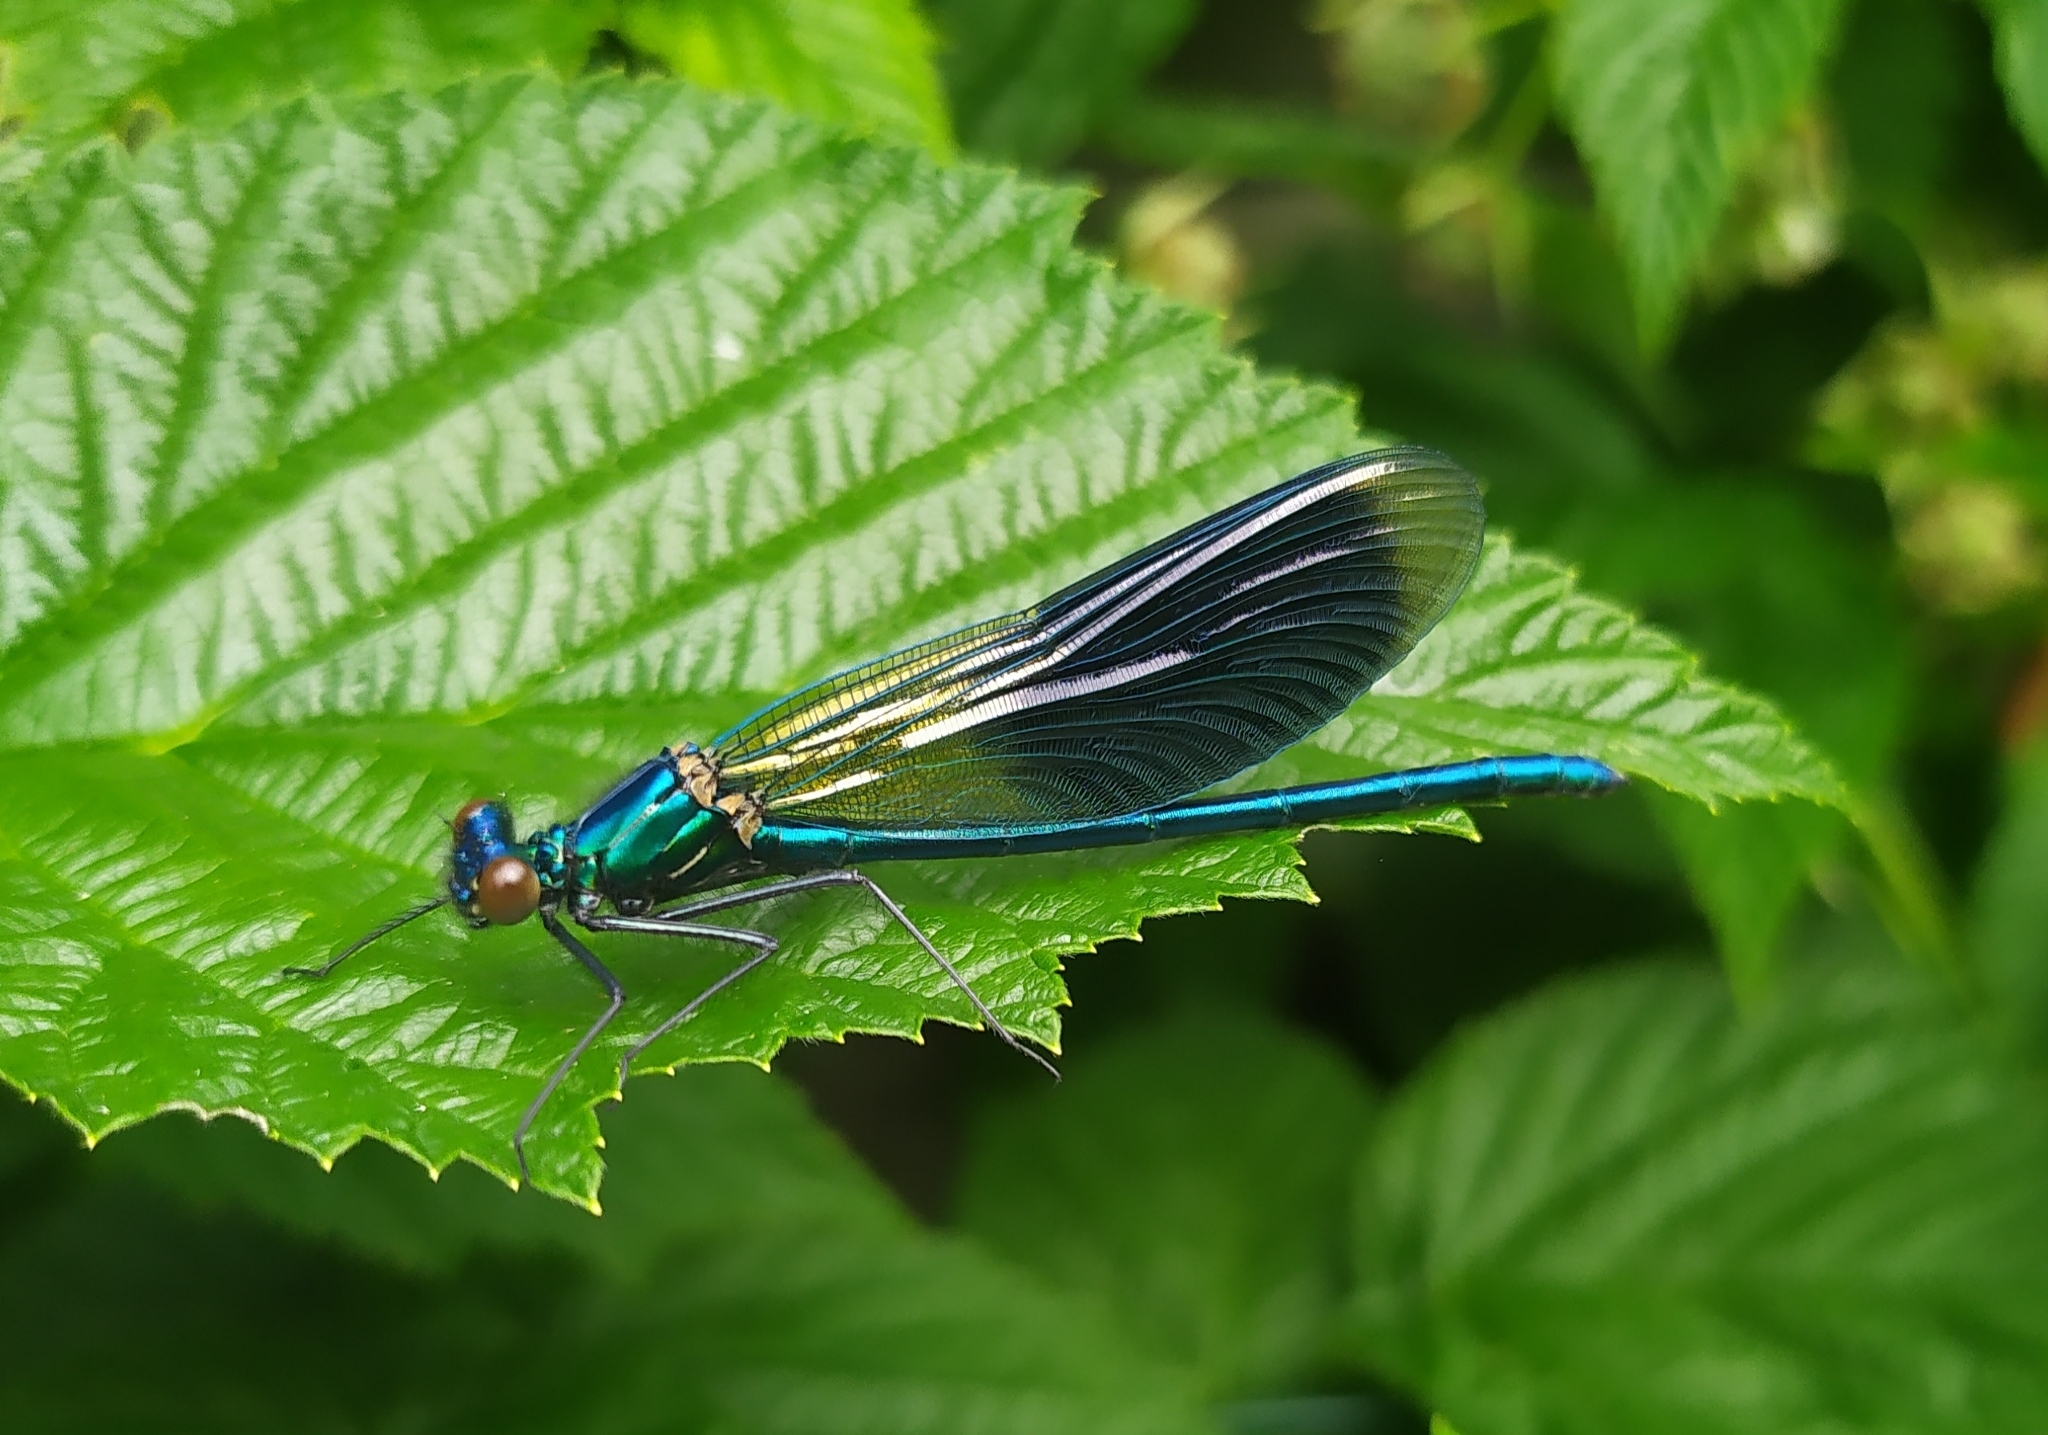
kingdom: Animalia
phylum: Arthropoda
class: Insecta
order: Odonata
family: Calopterygidae
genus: Calopteryx
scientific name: Calopteryx splendens
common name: Banded demoiselle
